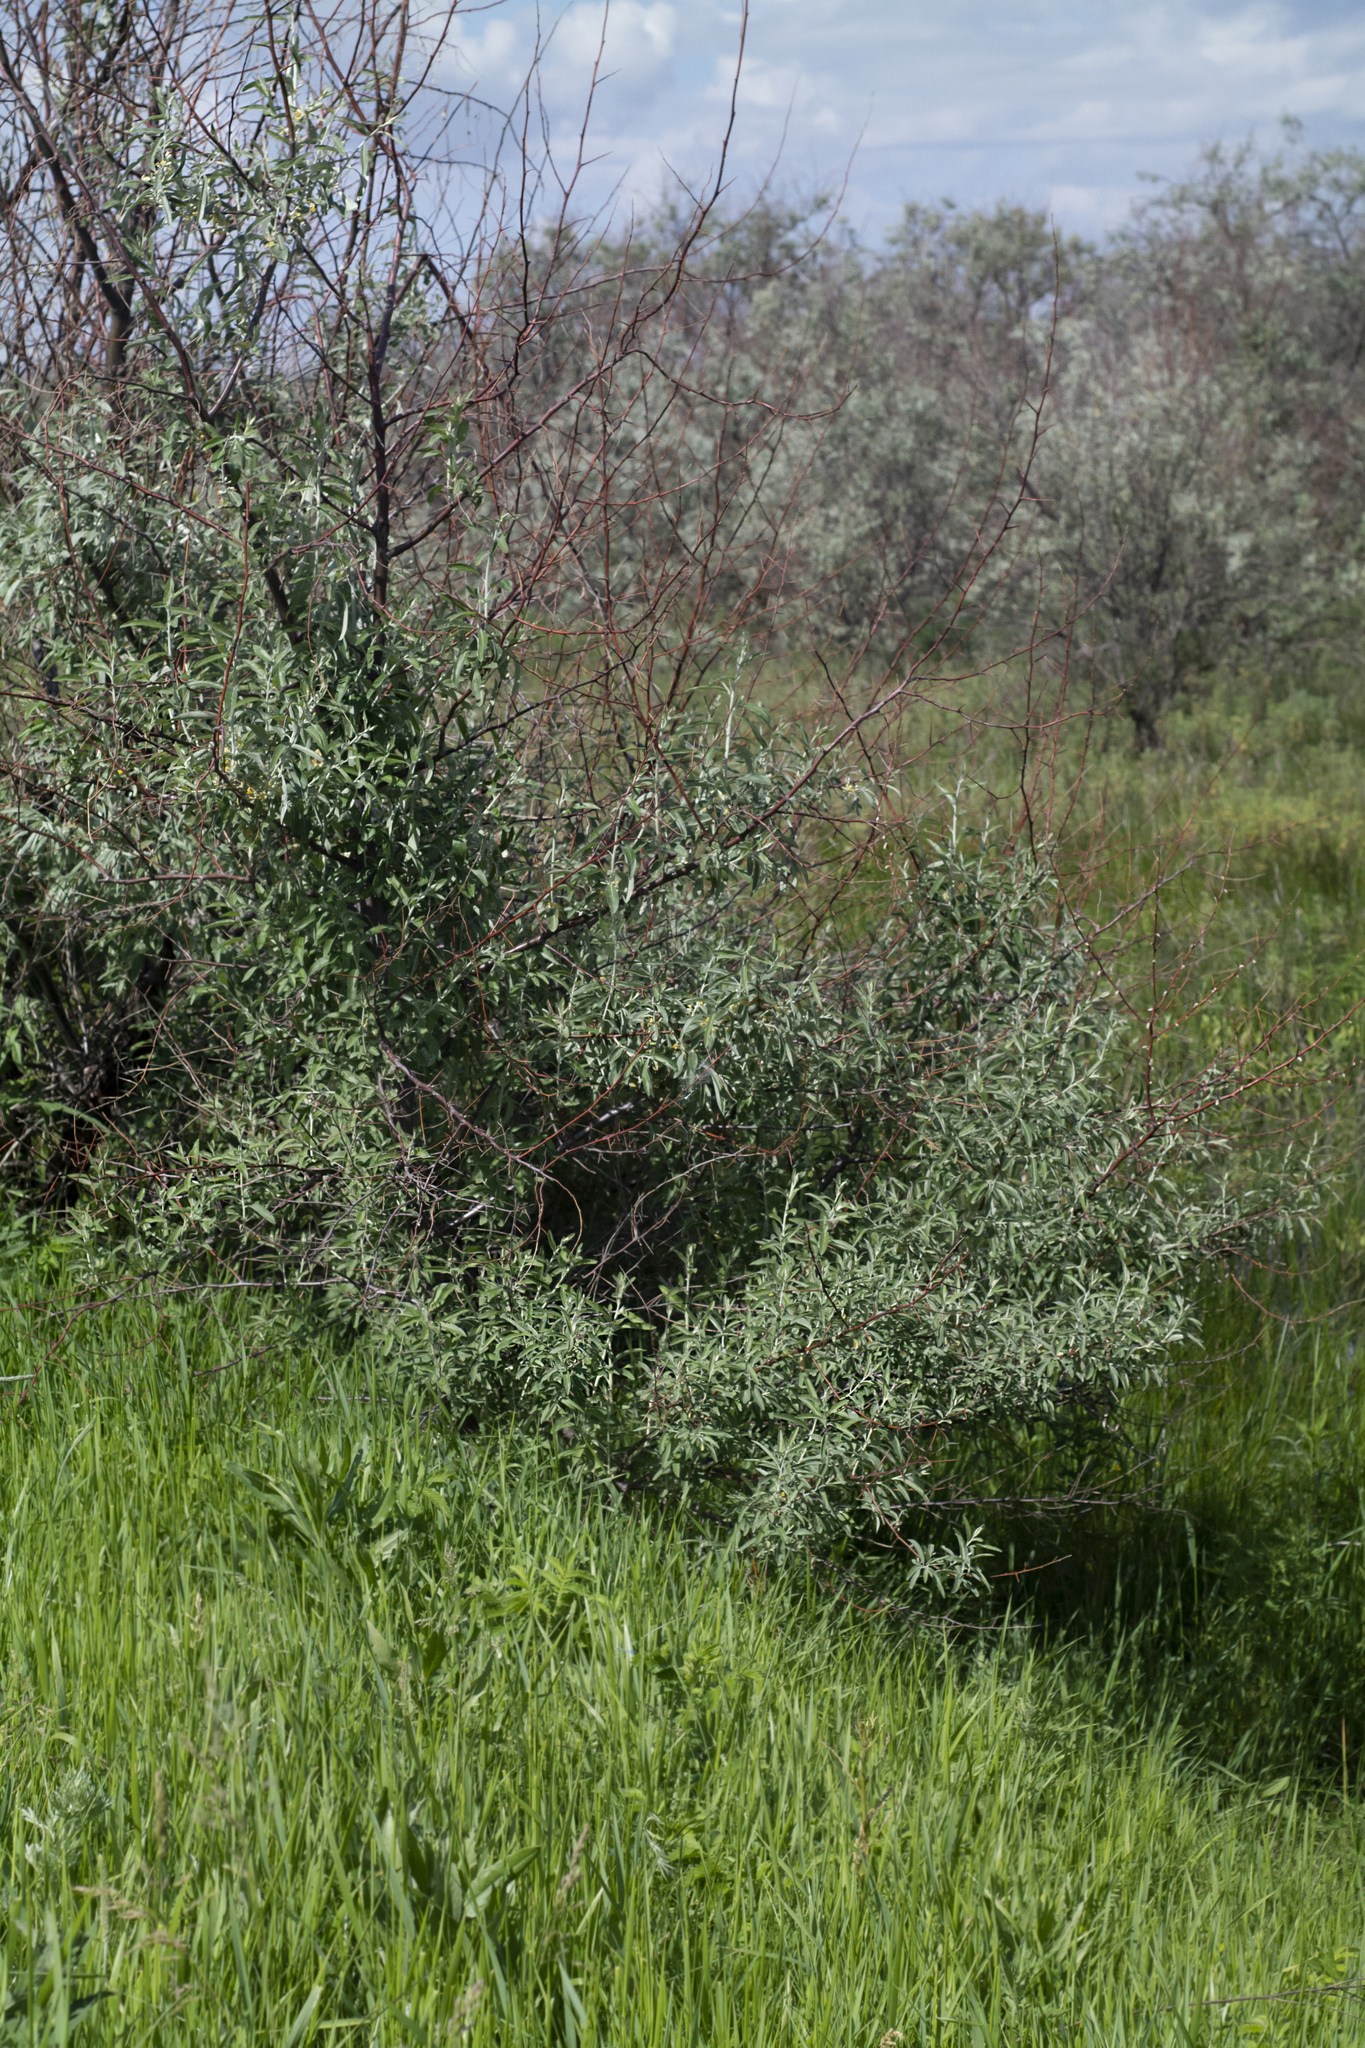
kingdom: Plantae
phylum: Tracheophyta
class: Magnoliopsida
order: Rosales
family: Elaeagnaceae
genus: Elaeagnus
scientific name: Elaeagnus angustifolia
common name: Russian olive
